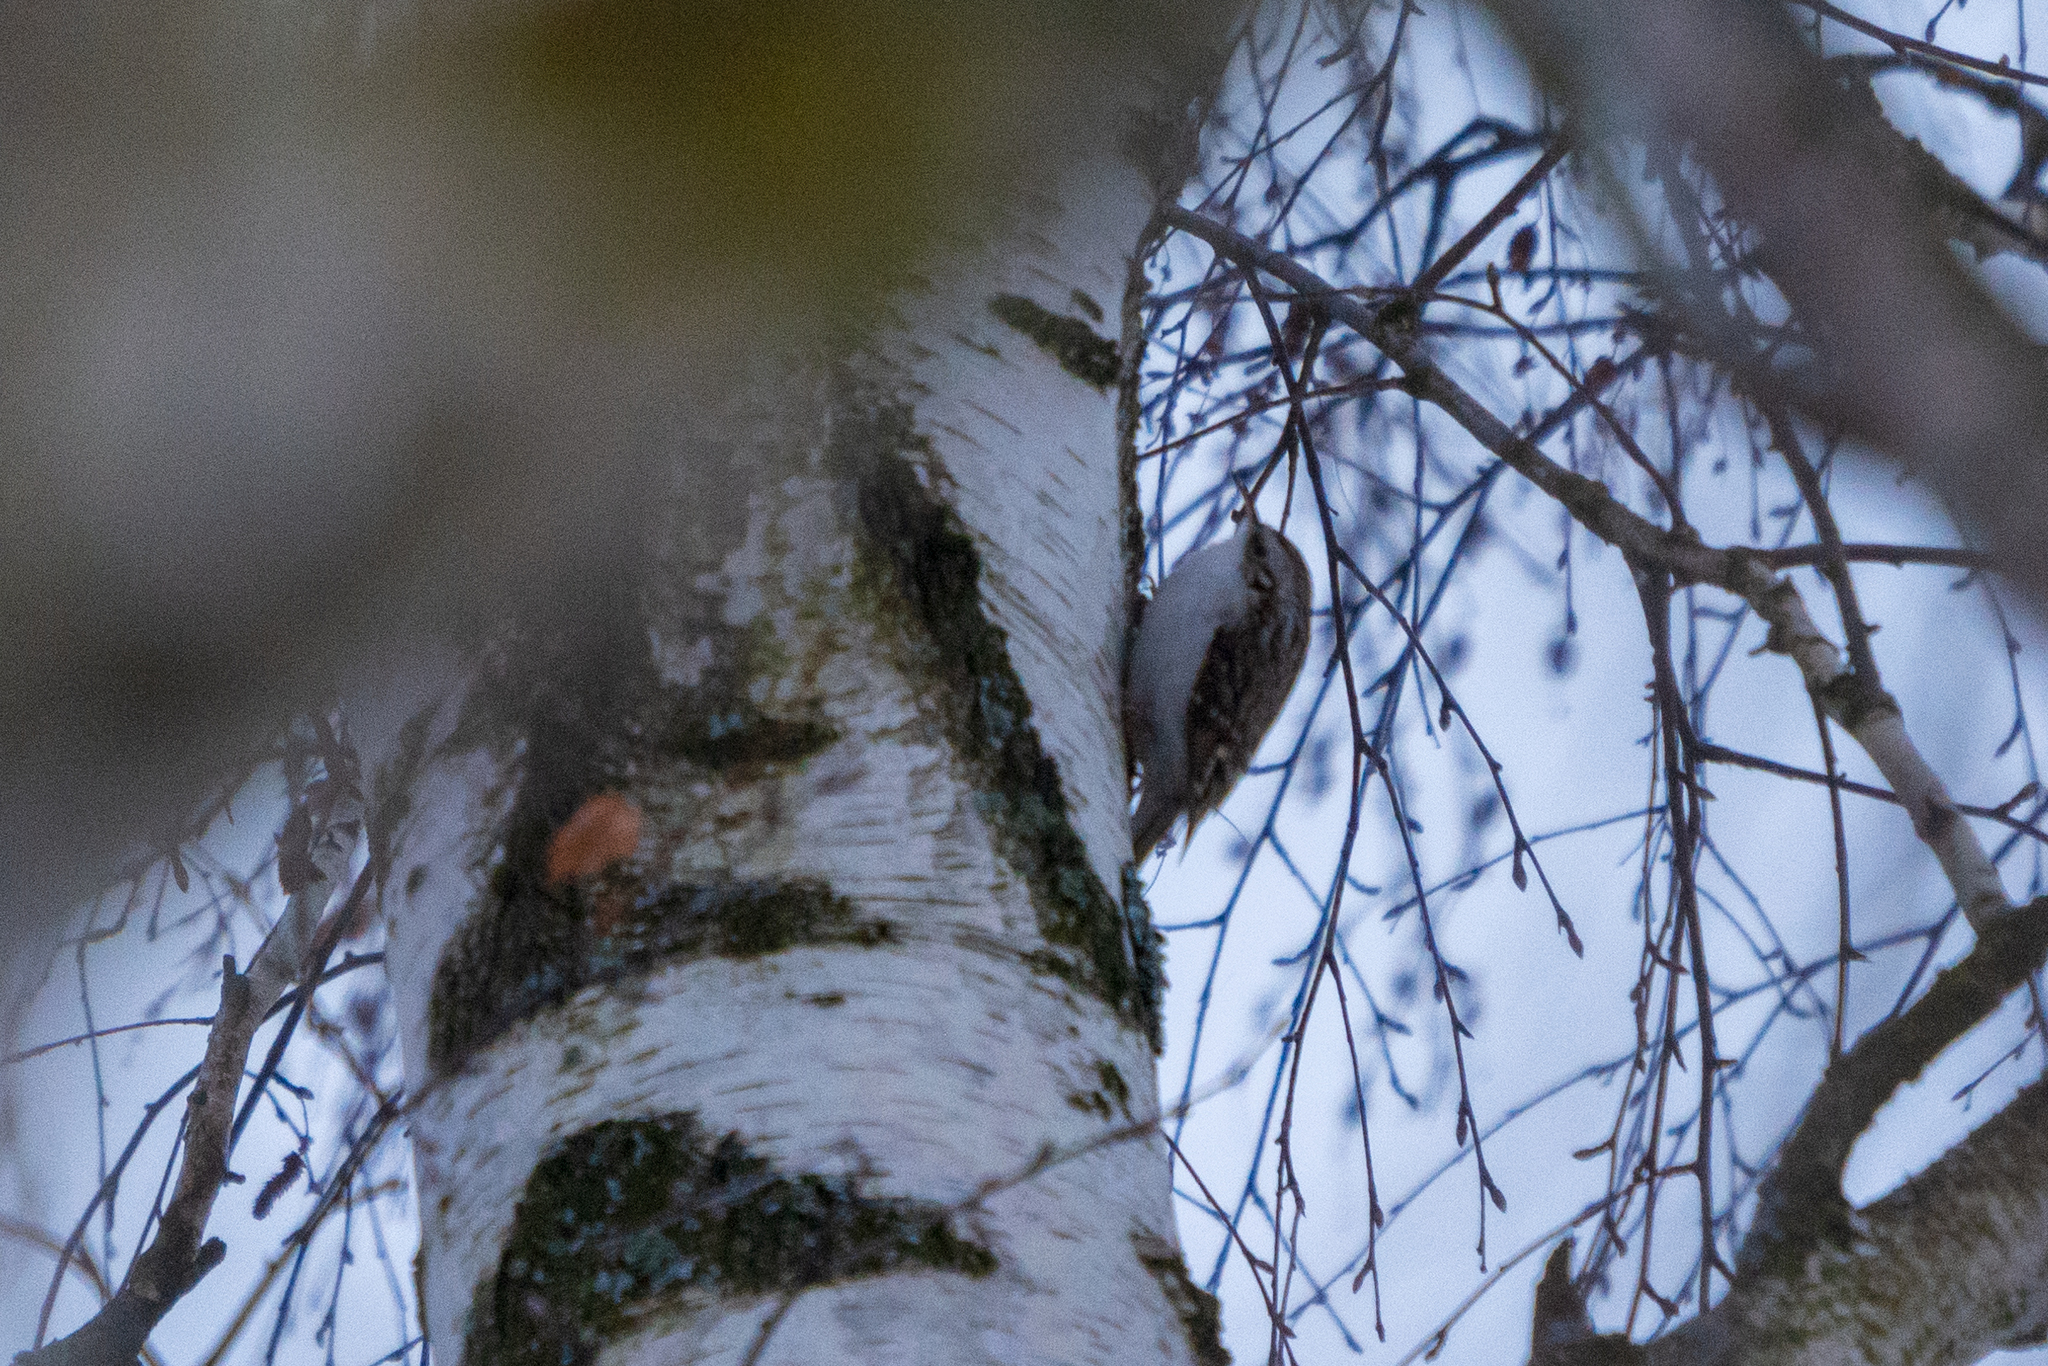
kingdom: Animalia
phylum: Chordata
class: Aves
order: Passeriformes
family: Certhiidae
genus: Certhia
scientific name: Certhia familiaris
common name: Eurasian treecreeper
